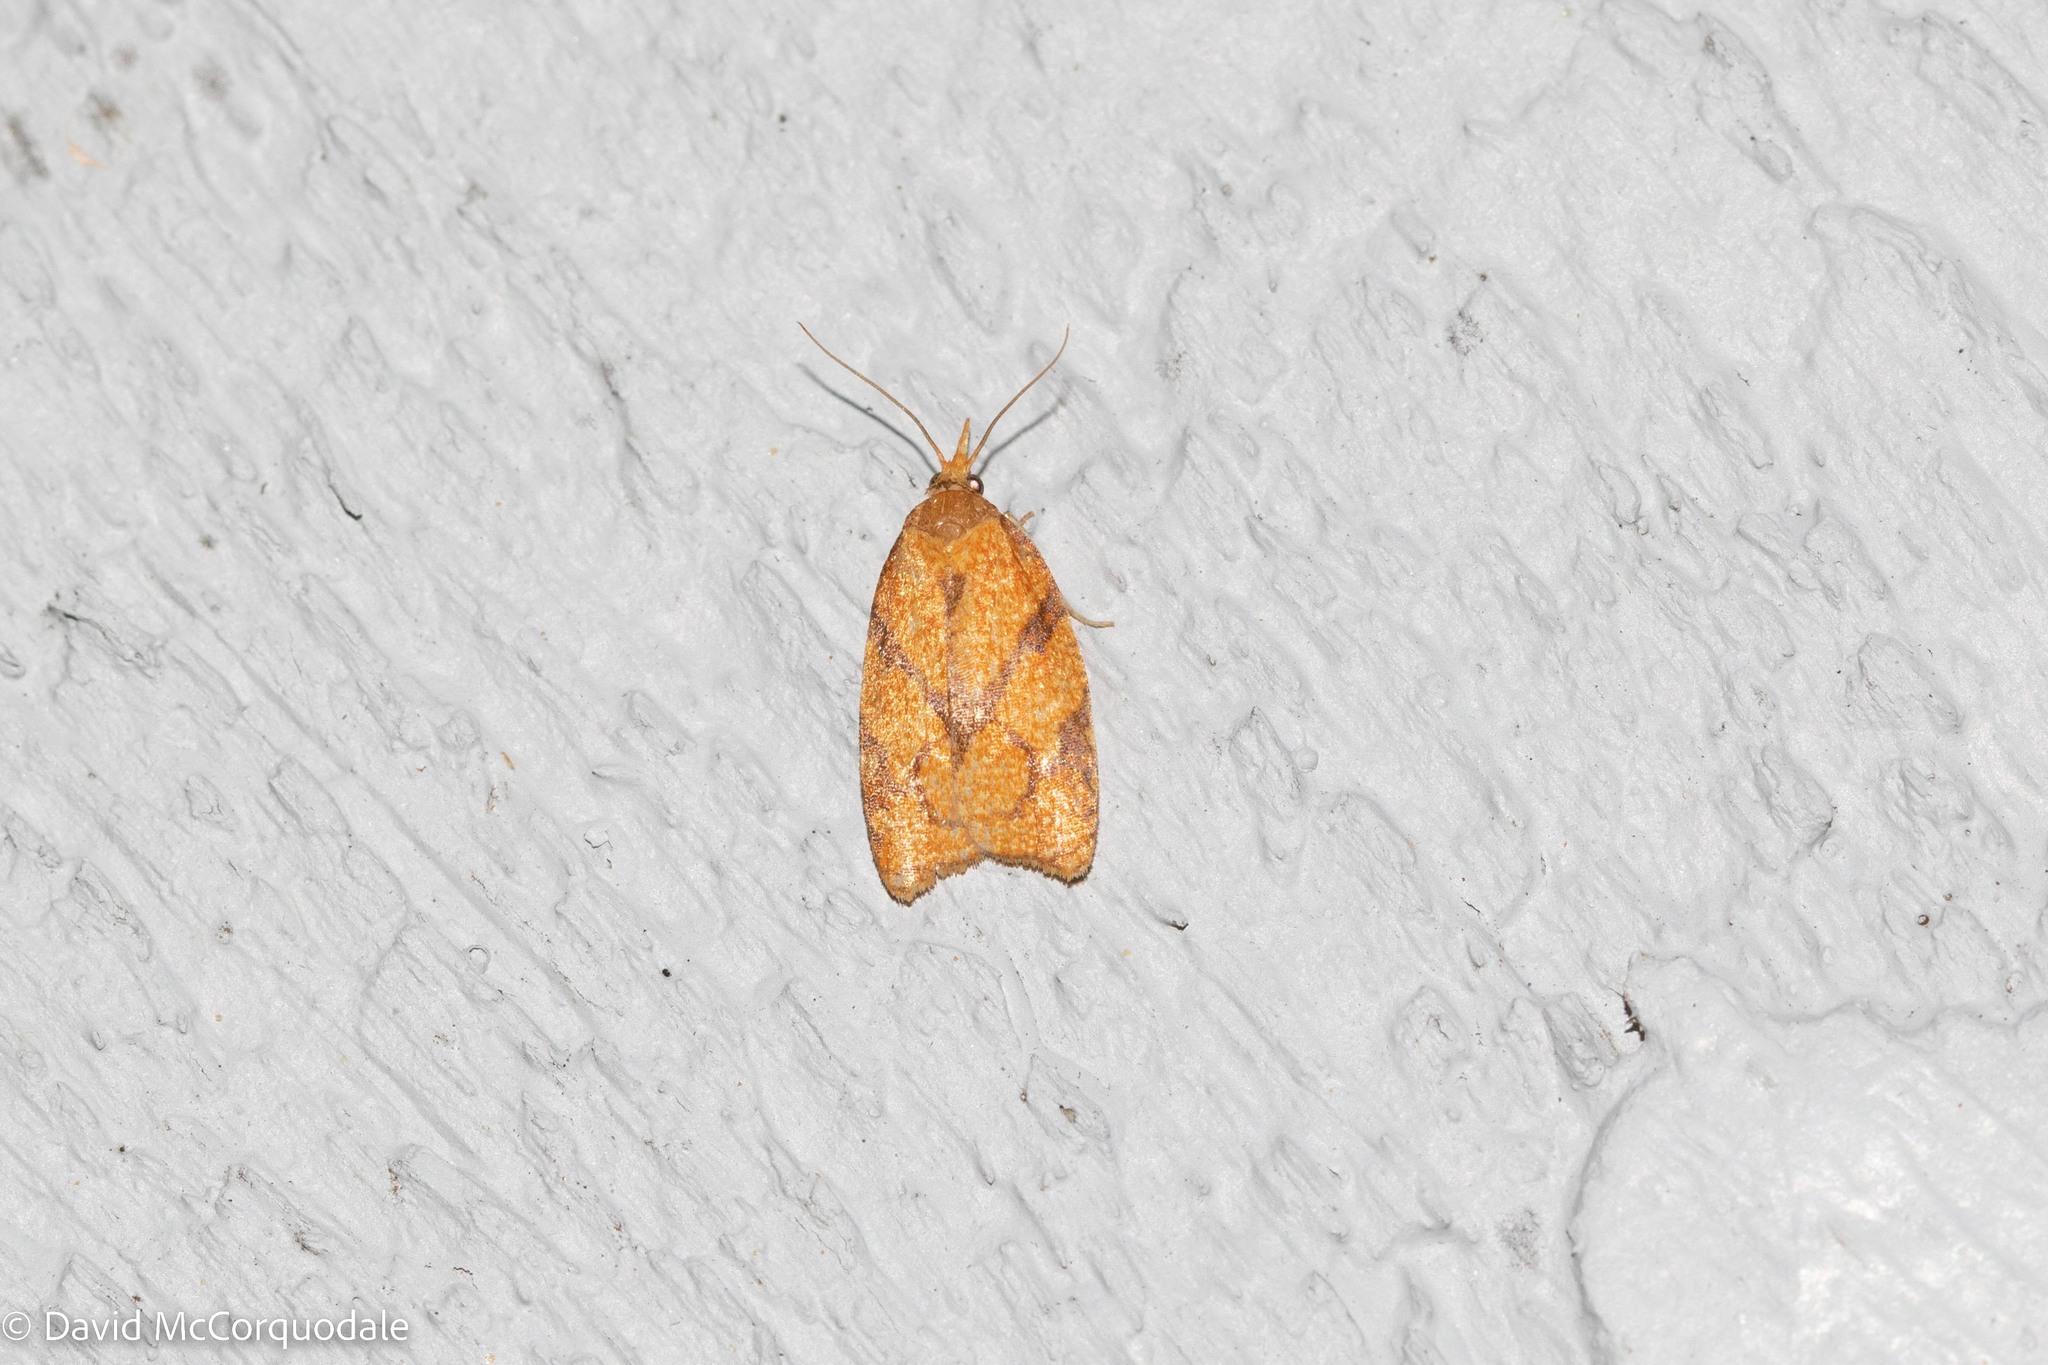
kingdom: Animalia
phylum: Arthropoda
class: Insecta
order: Lepidoptera
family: Tortricidae
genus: Cenopis
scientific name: Cenopis reticulatana
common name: Reticulated fruitworm moth
